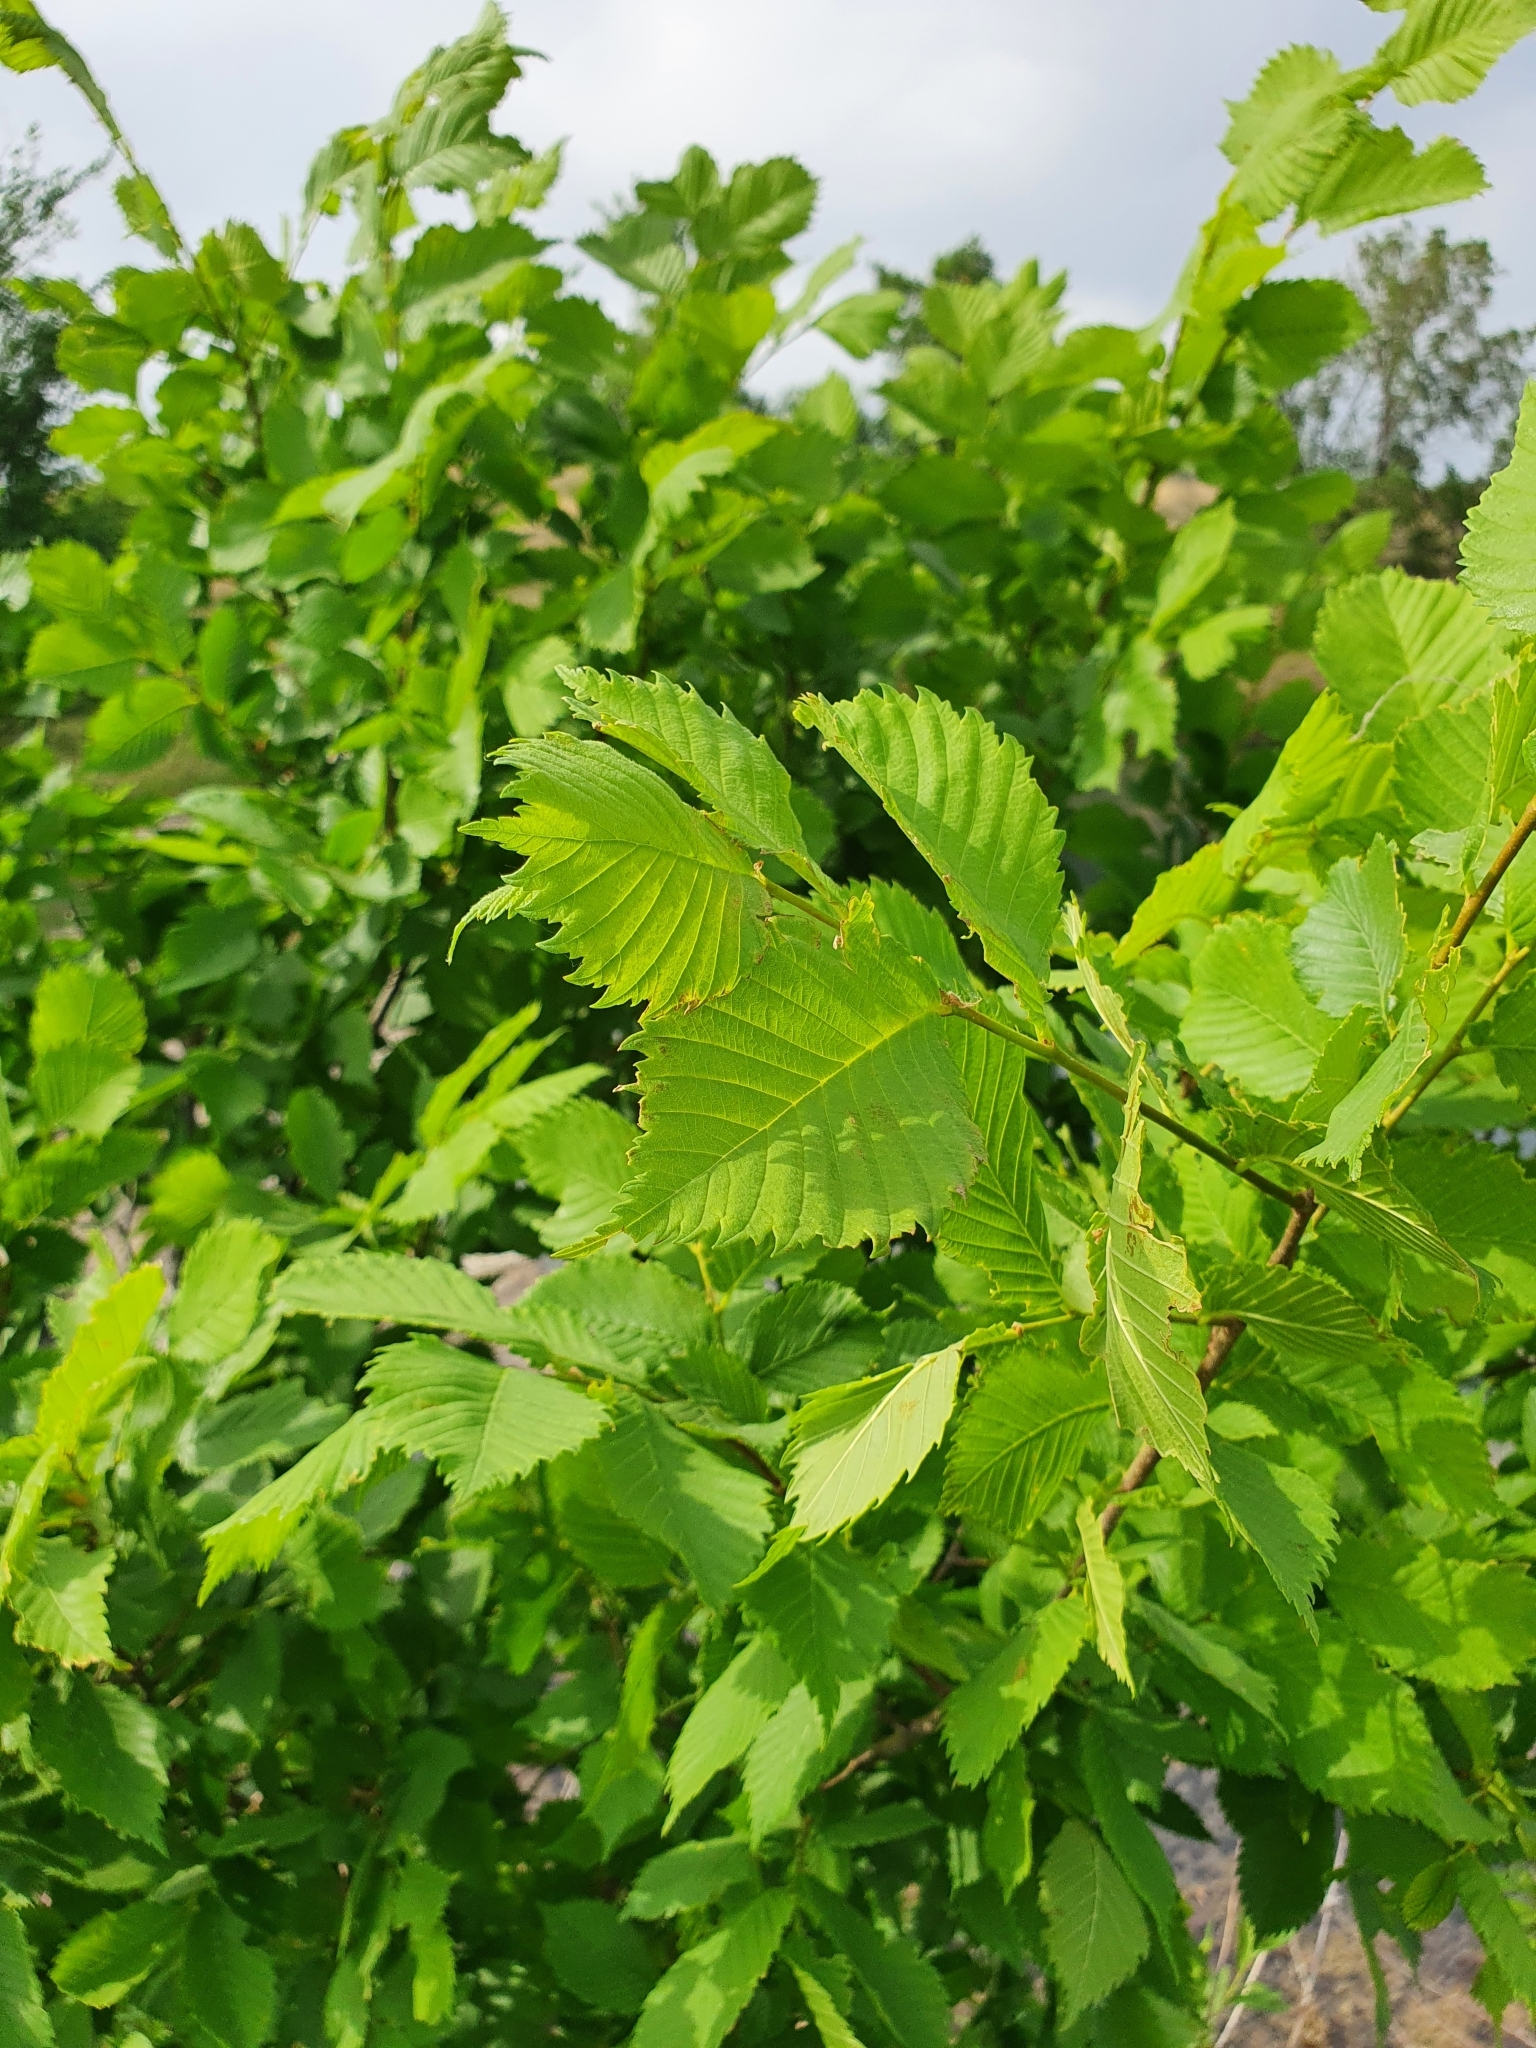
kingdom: Plantae
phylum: Tracheophyta
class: Magnoliopsida
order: Rosales
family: Ulmaceae
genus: Ulmus
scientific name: Ulmus glabra
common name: Wych elm
